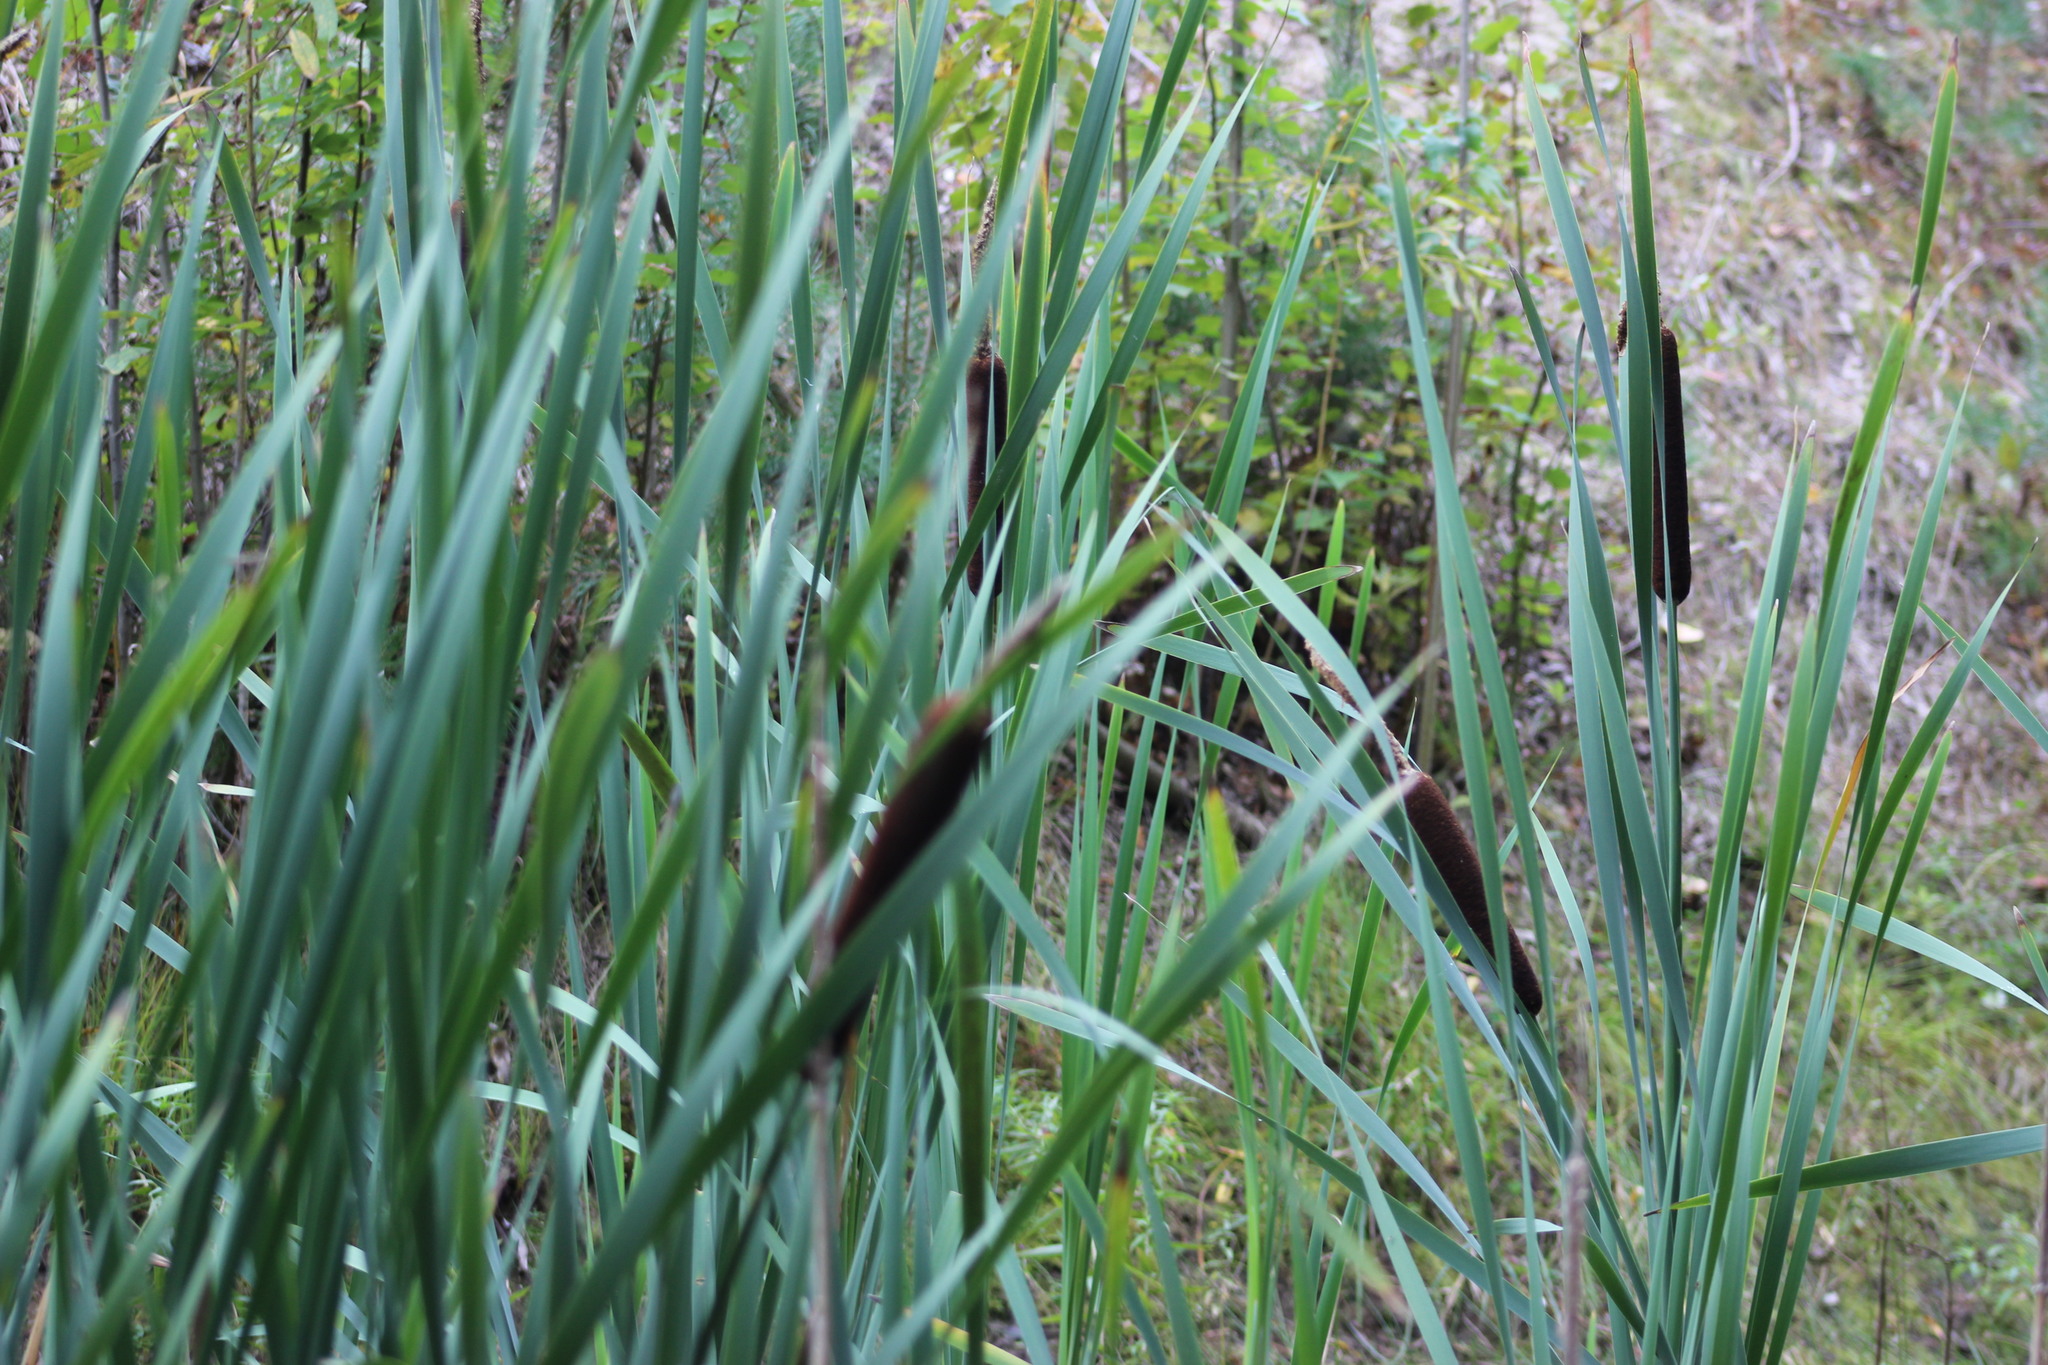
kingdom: Plantae
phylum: Tracheophyta
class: Liliopsida
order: Poales
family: Typhaceae
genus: Typha
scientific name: Typha latifolia
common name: Broadleaf cattail
